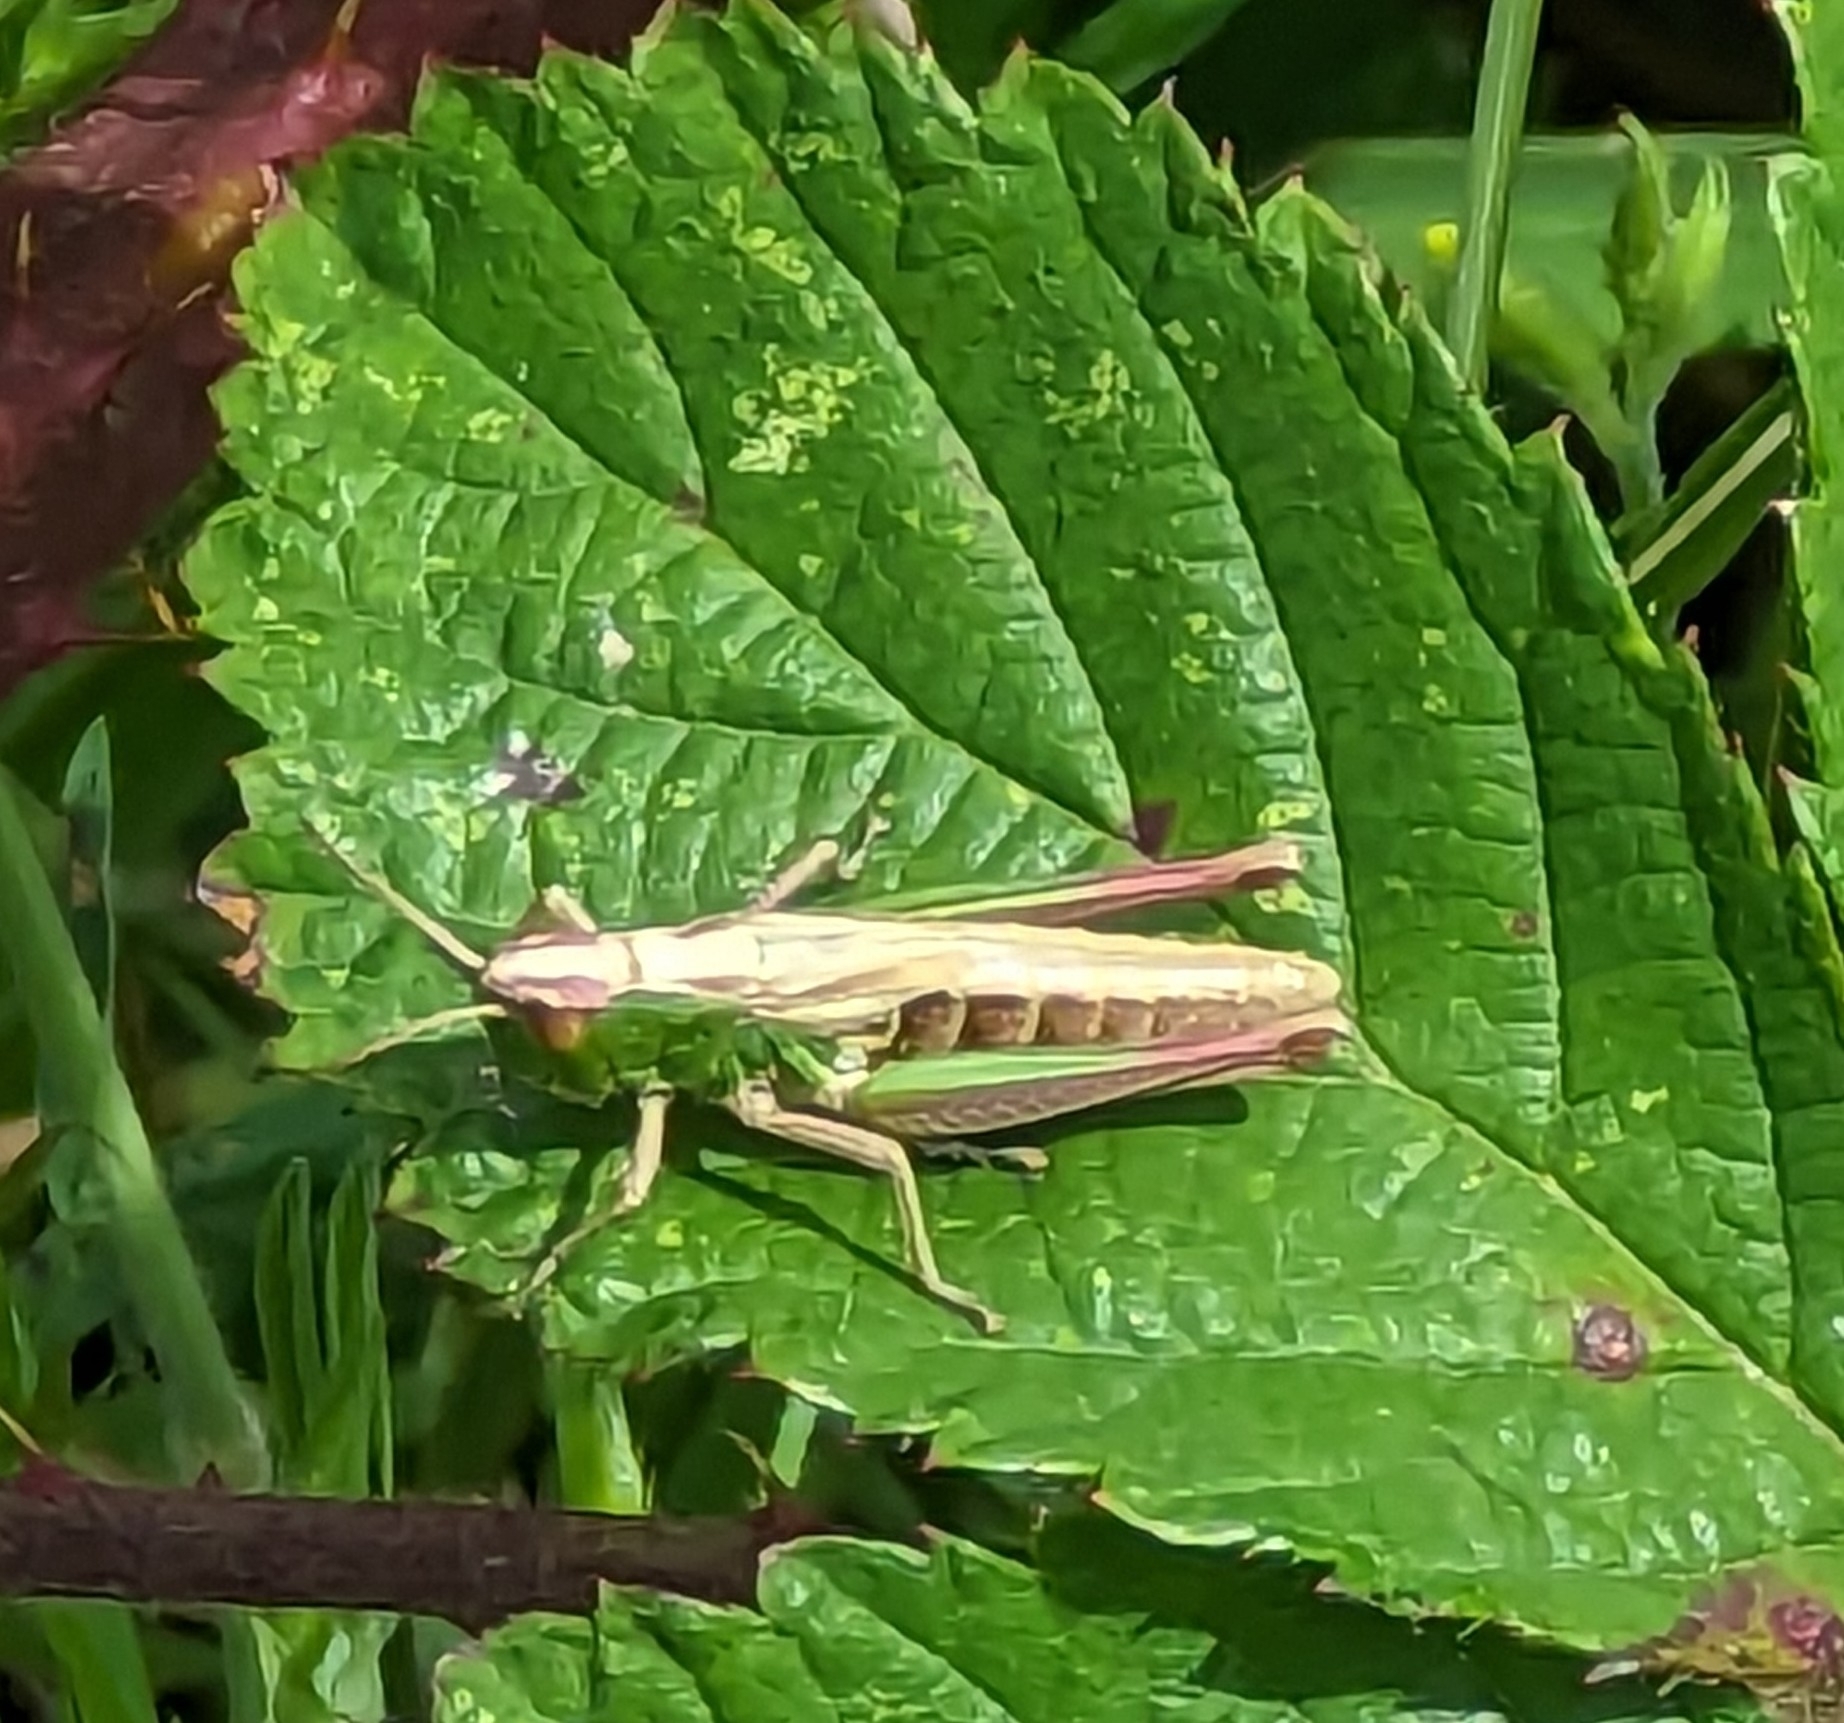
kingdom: Animalia
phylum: Arthropoda
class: Insecta
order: Orthoptera
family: Acrididae
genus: Pseudochorthippus
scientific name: Pseudochorthippus parallelus
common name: Meadow grasshopper
